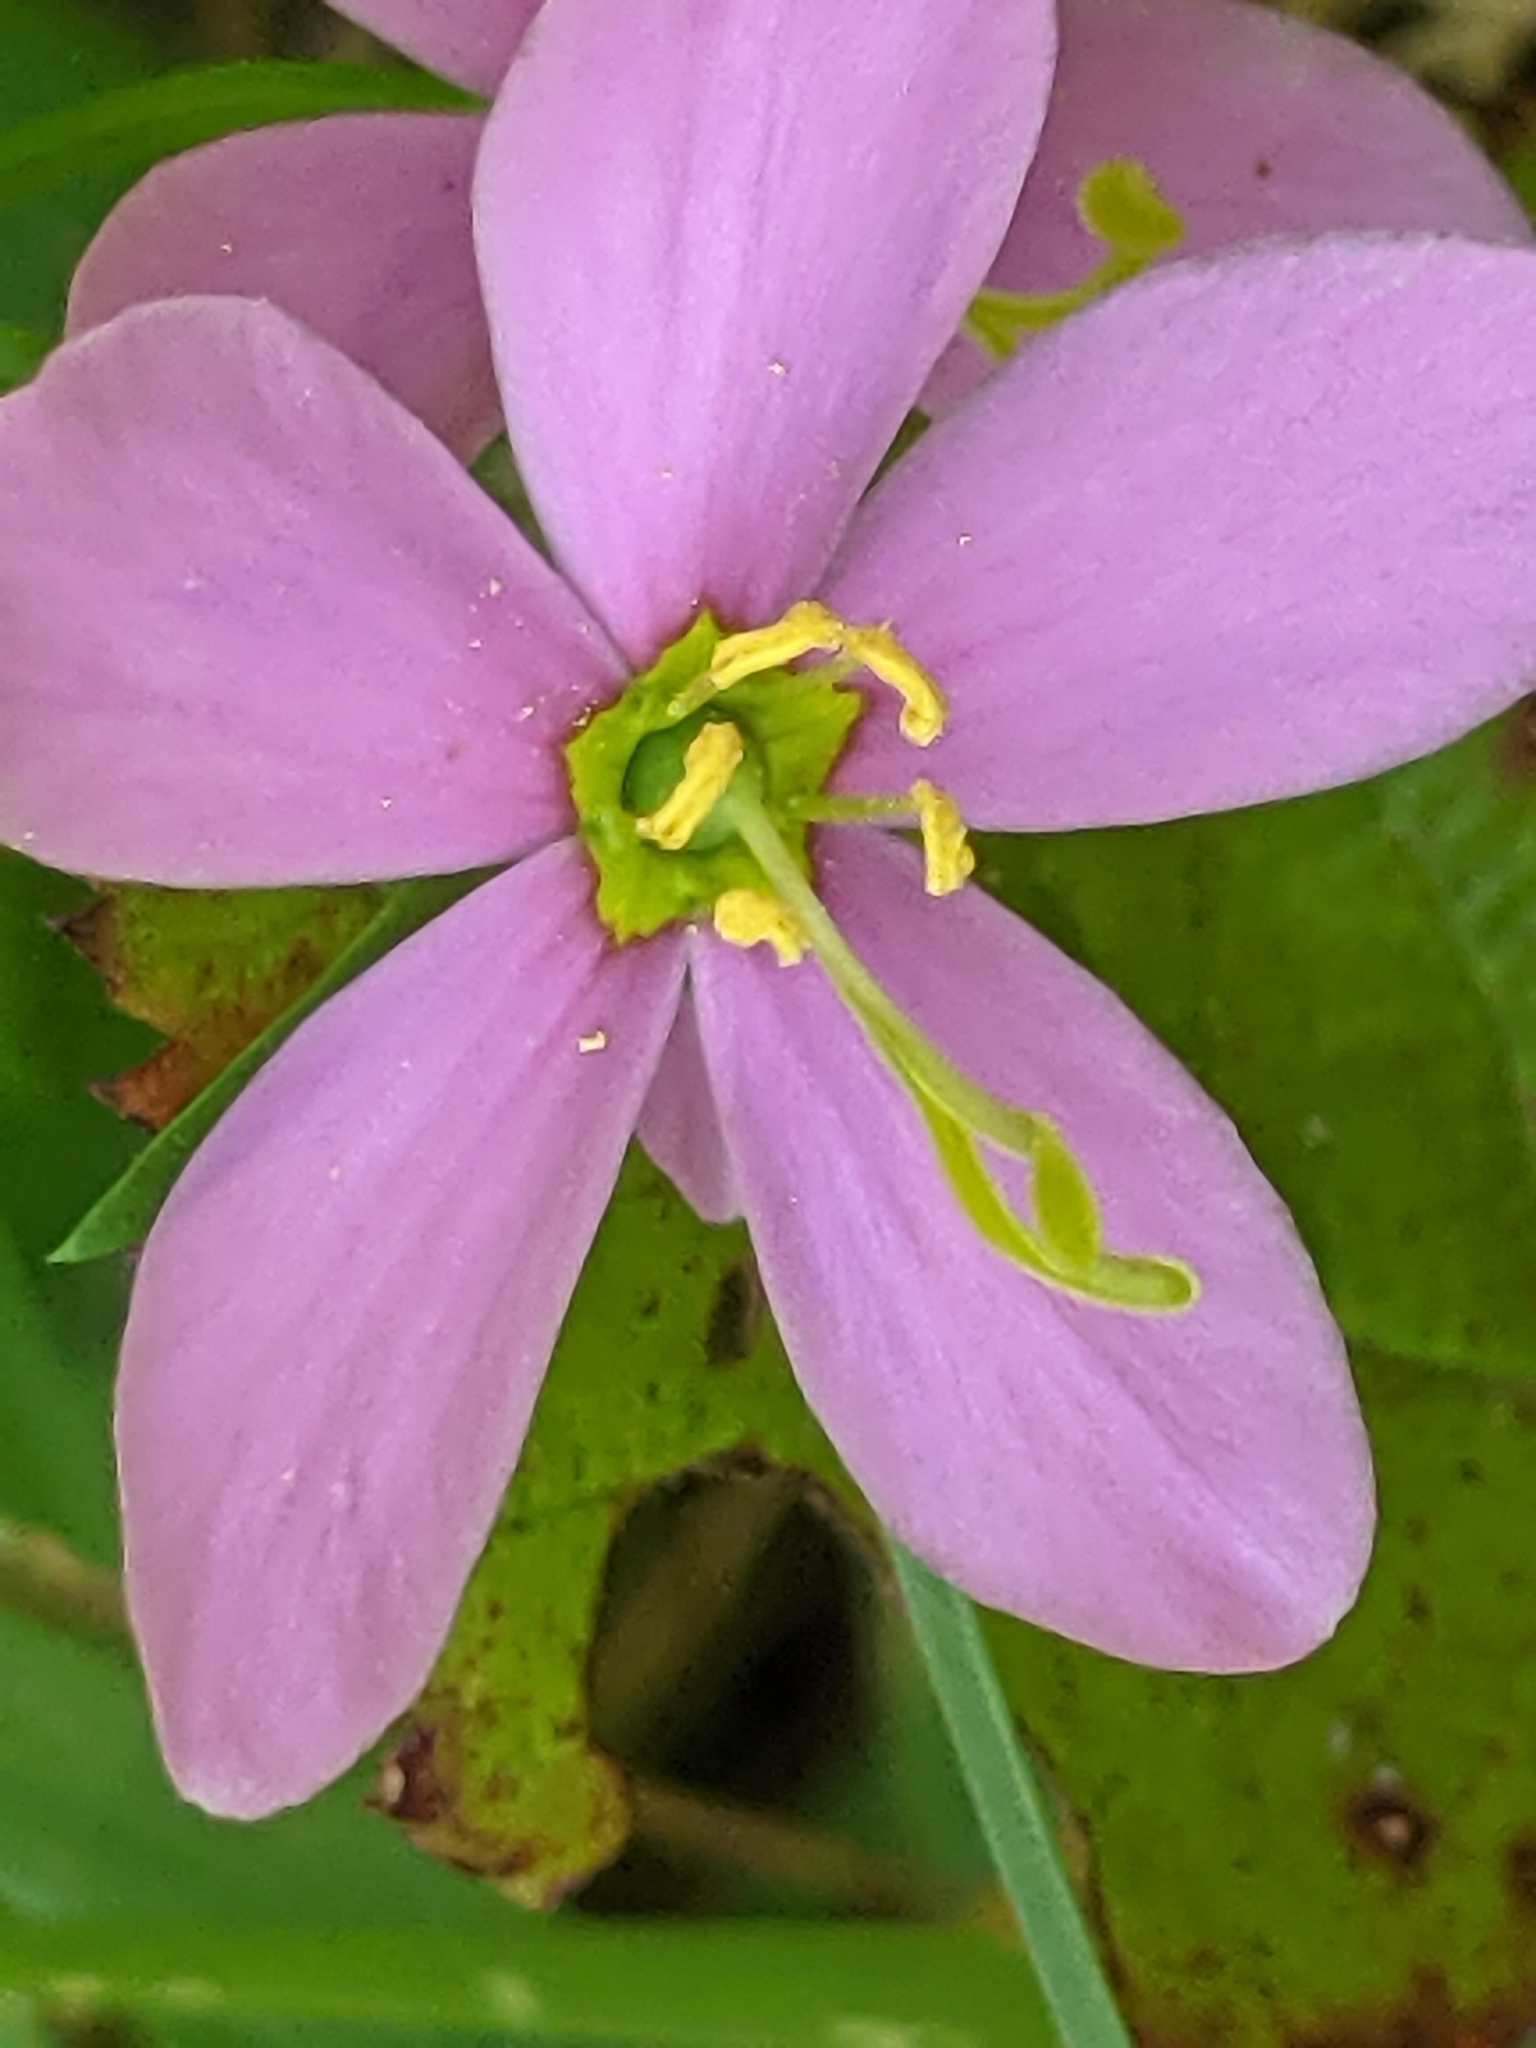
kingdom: Plantae
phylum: Tracheophyta
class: Magnoliopsida
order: Gentianales
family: Gentianaceae
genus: Sabatia
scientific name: Sabatia angularis
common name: Rose-pink
